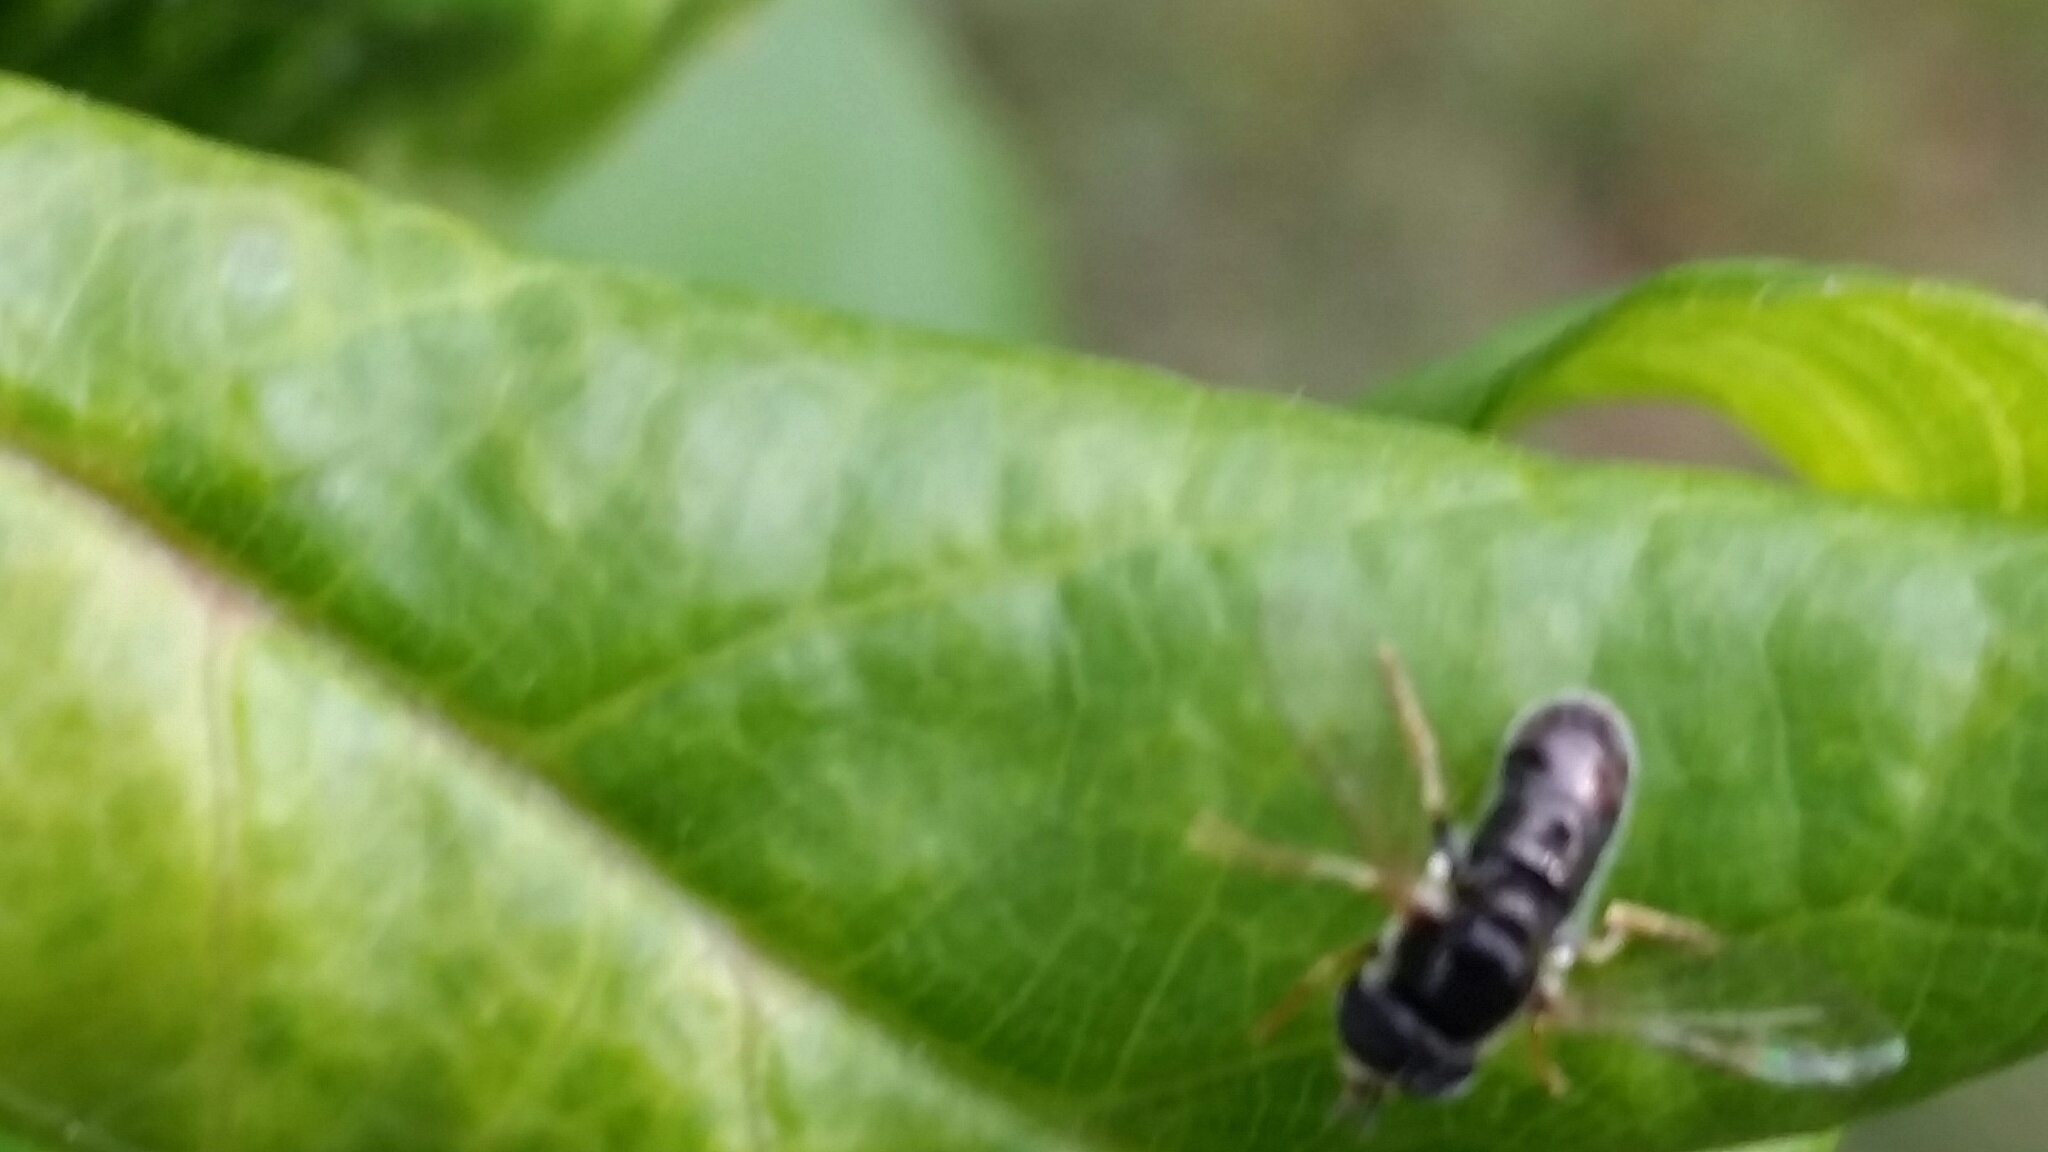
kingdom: Animalia
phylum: Arthropoda
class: Insecta
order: Diptera
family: Syrphidae
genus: Paragus
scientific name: Paragus
